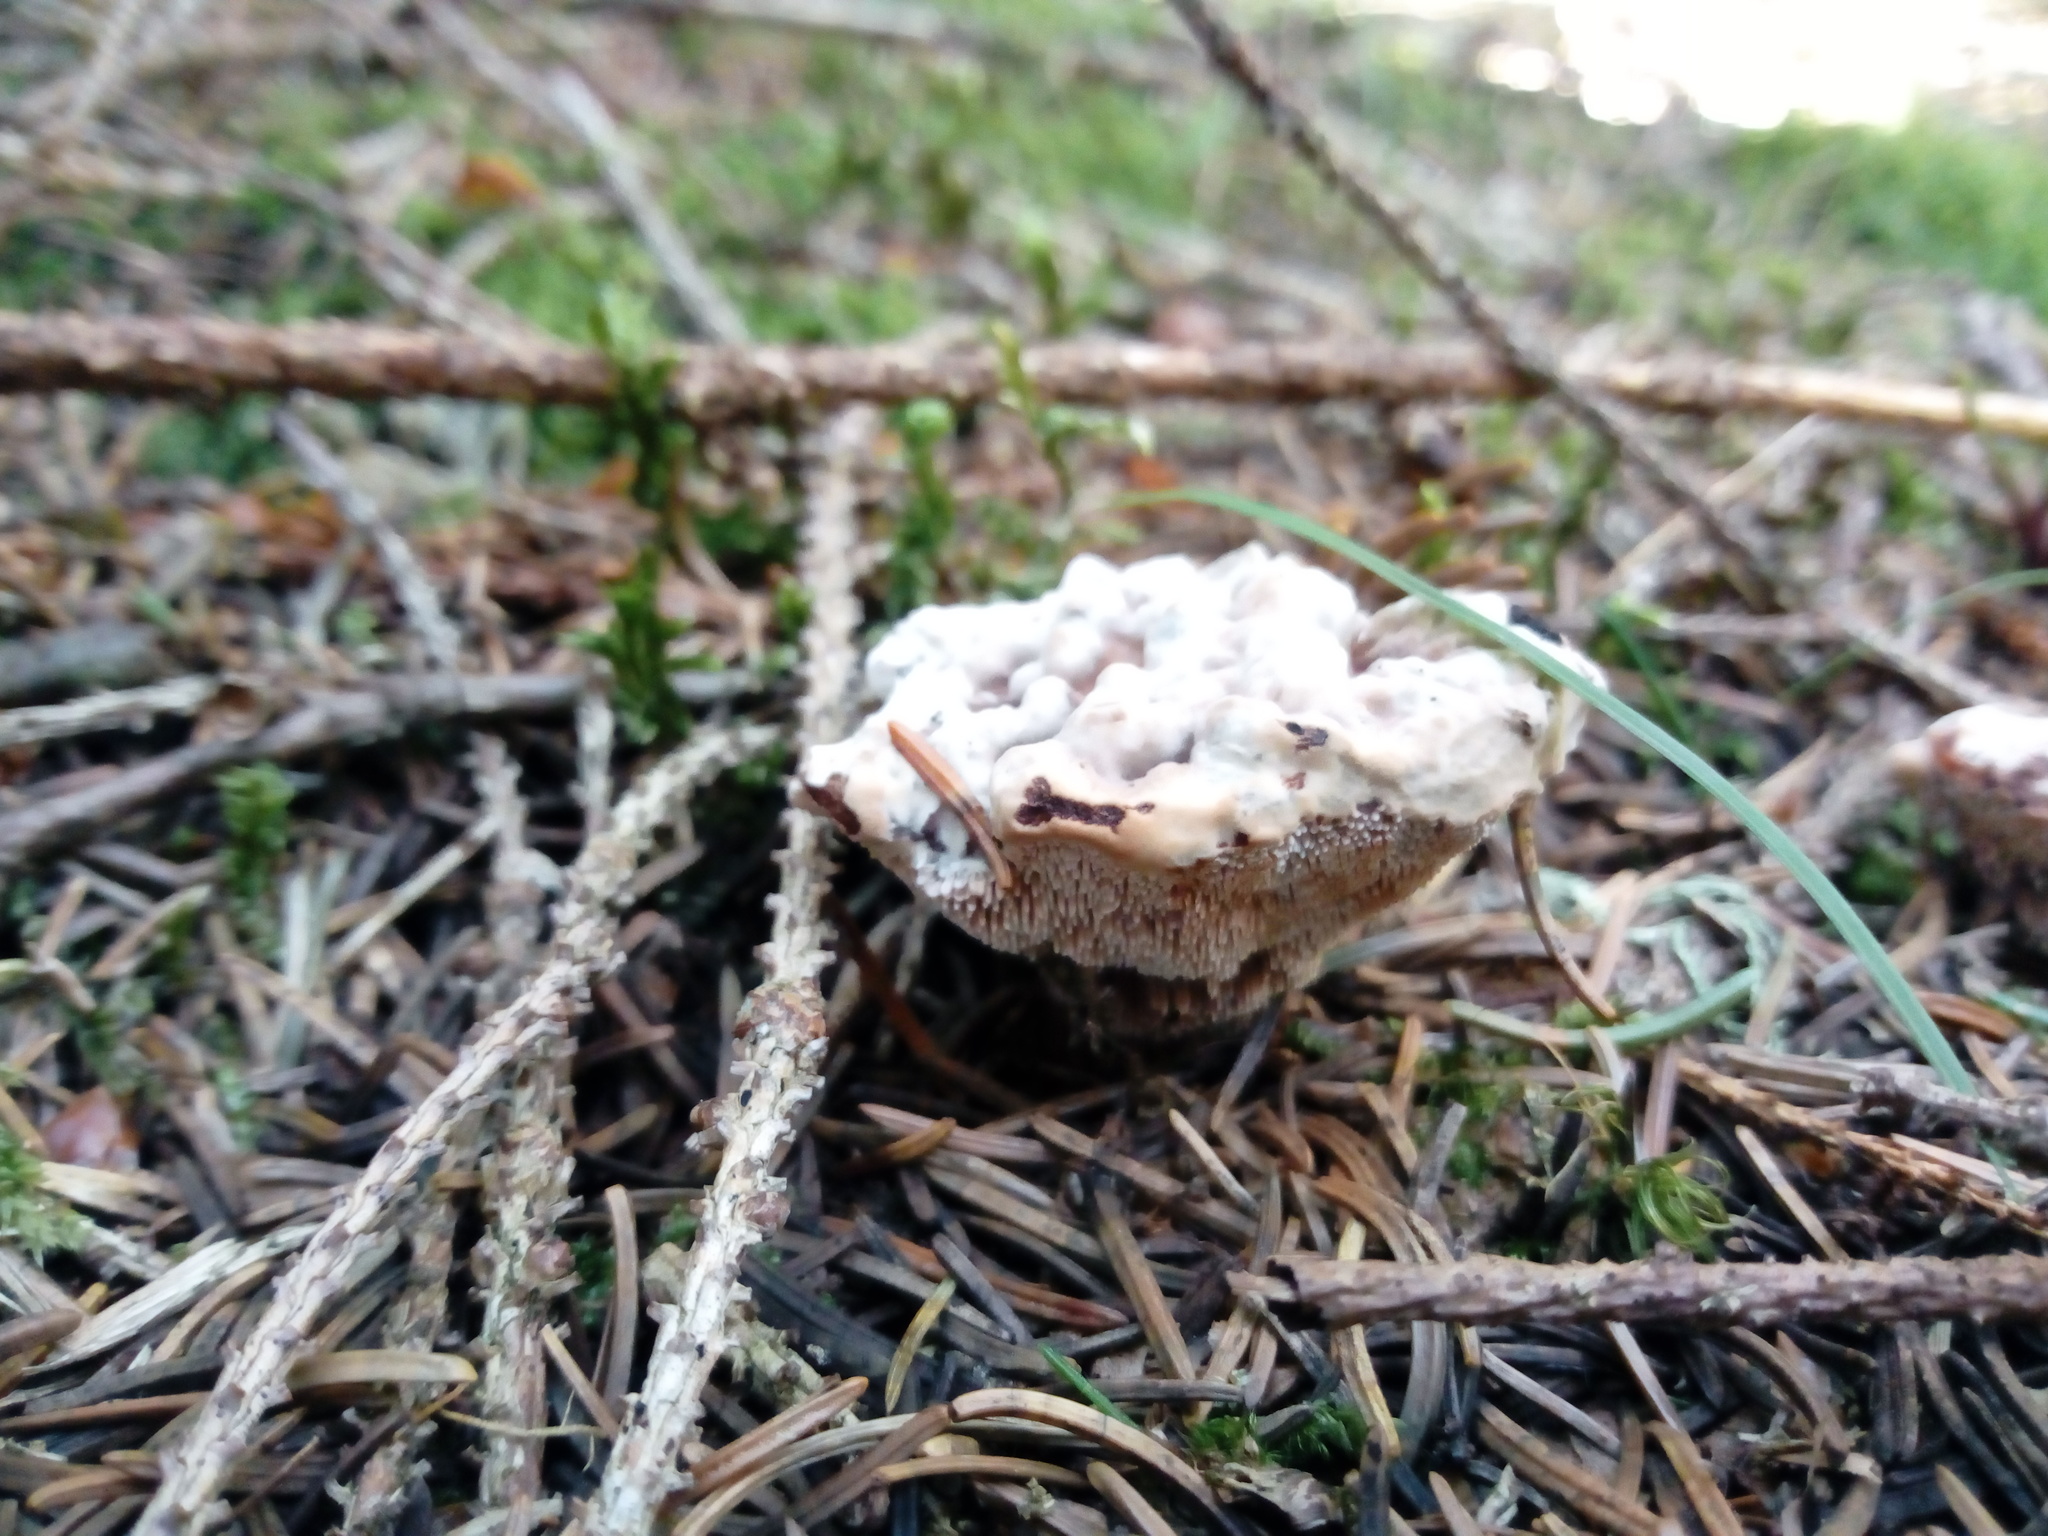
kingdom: Fungi
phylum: Basidiomycota
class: Agaricomycetes
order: Thelephorales
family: Bankeraceae
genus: Hydnellum
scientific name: Hydnellum peckii
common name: Devil's tooth
